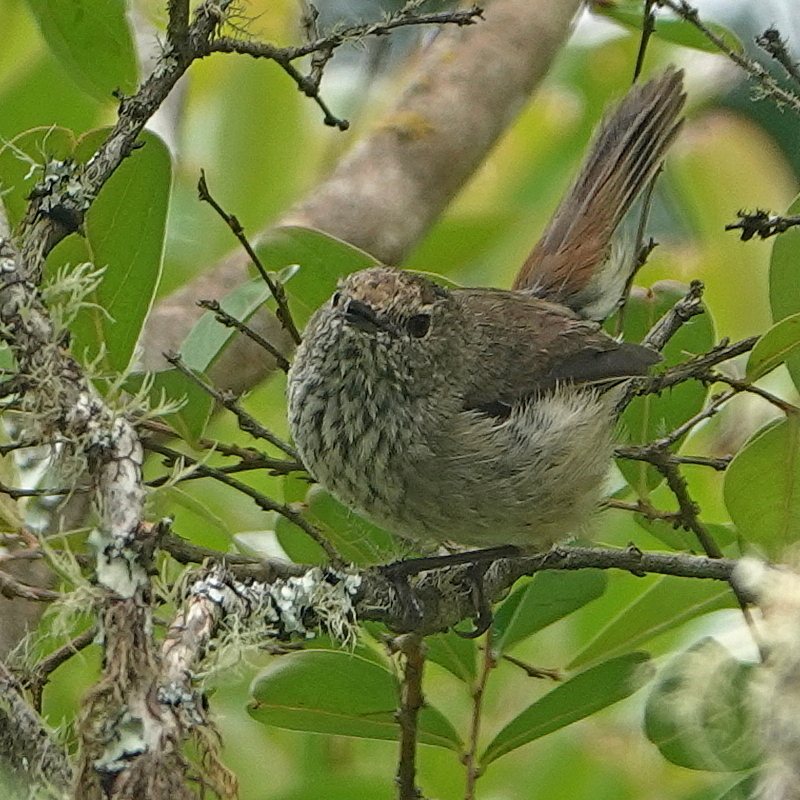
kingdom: Animalia
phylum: Chordata
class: Aves
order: Passeriformes
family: Acanthizidae
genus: Acanthiza
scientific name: Acanthiza pusilla
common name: Brown thornbill
